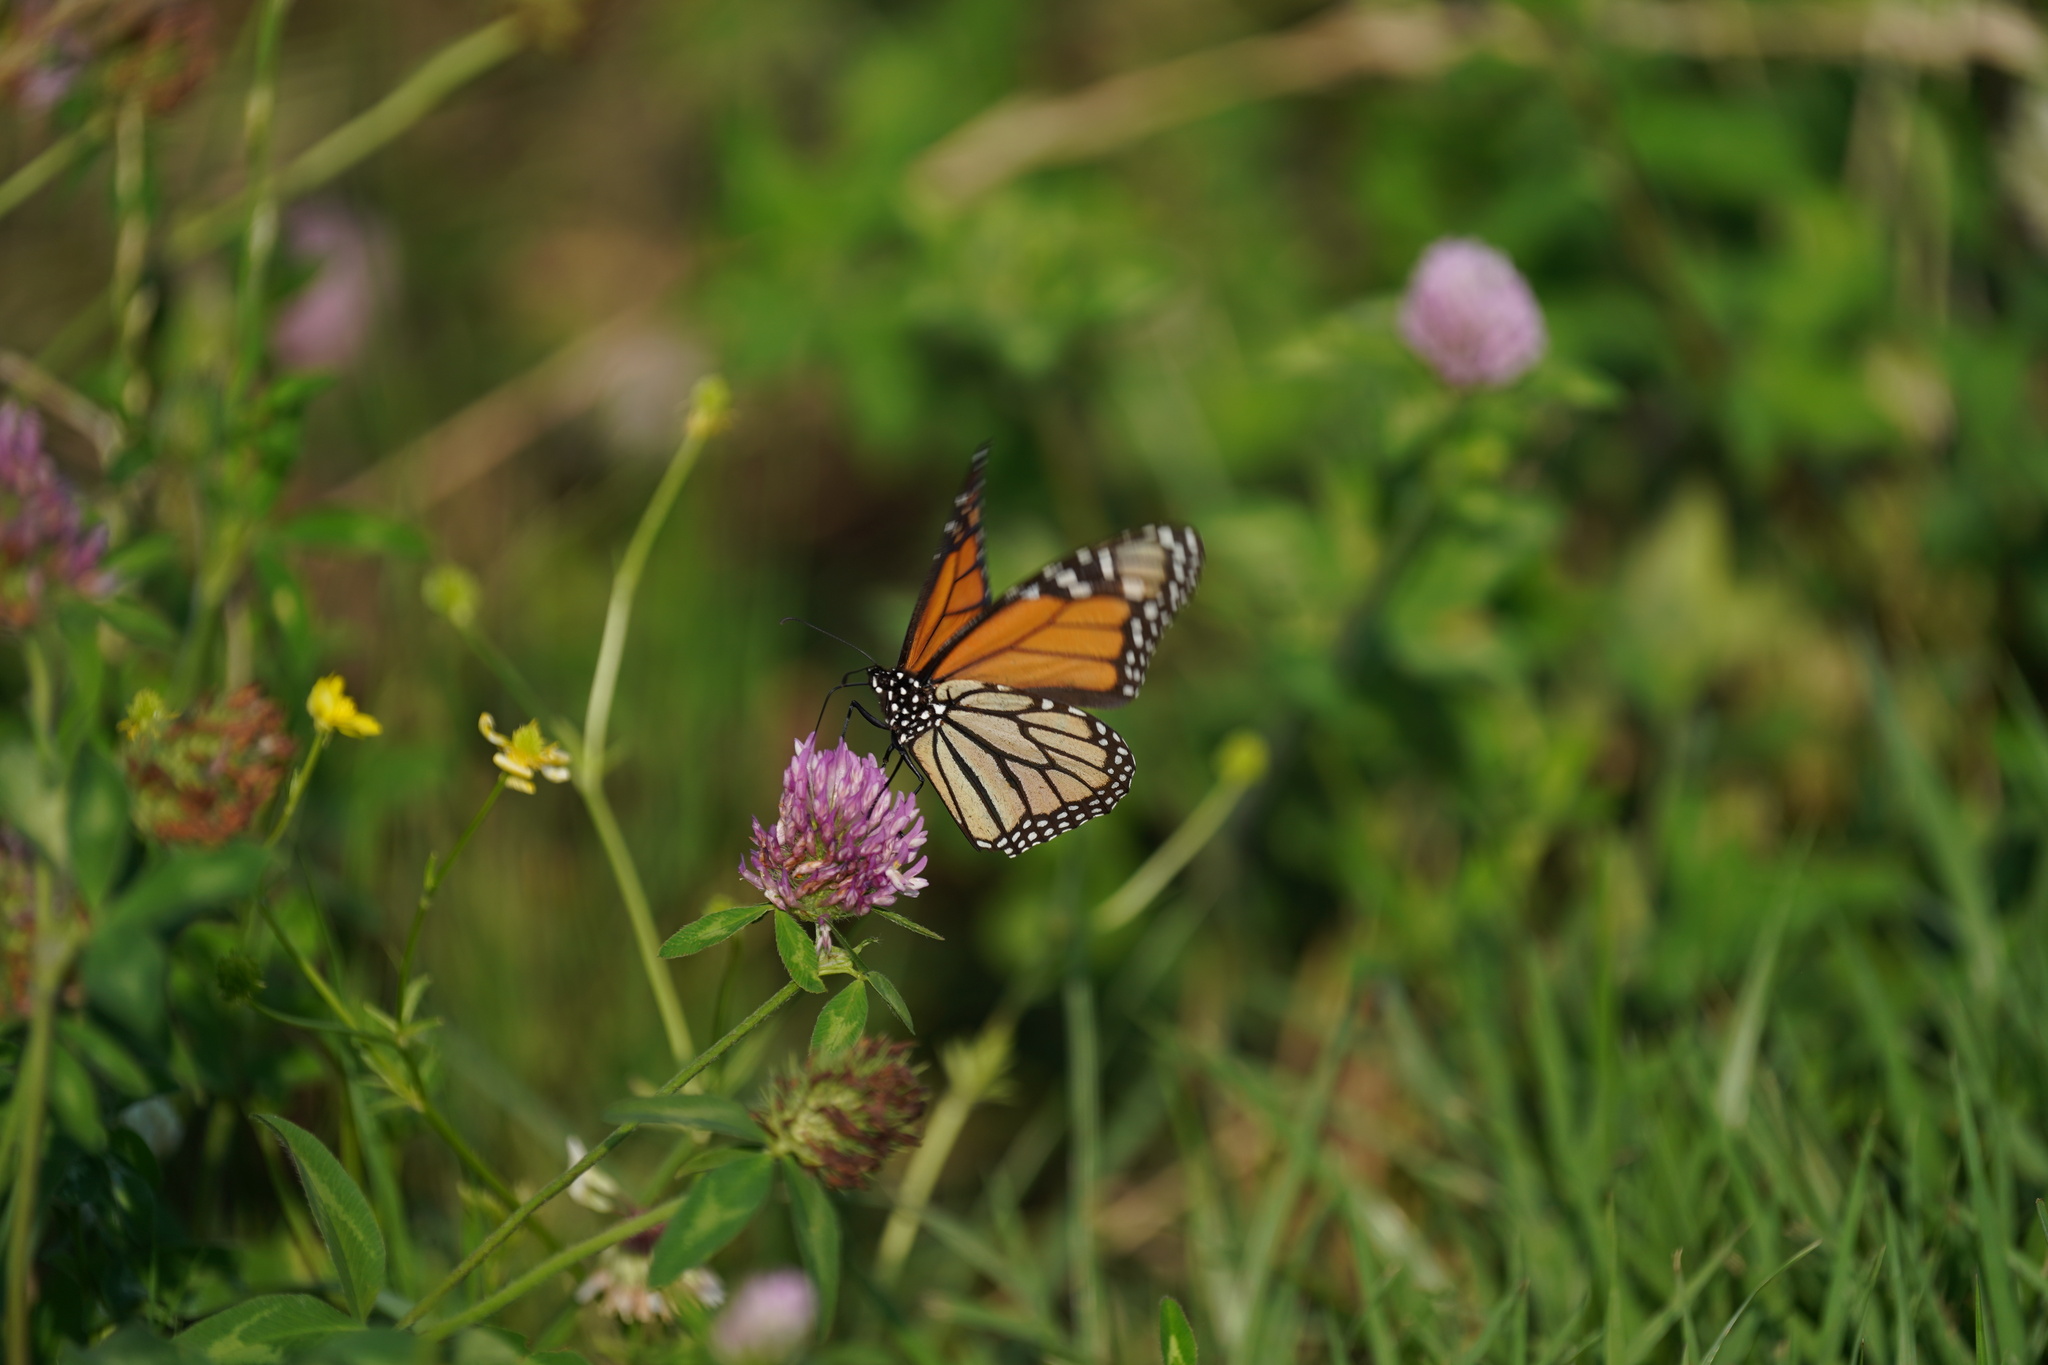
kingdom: Animalia
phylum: Arthropoda
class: Insecta
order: Lepidoptera
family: Nymphalidae
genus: Danaus
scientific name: Danaus plexippus
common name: Monarch
